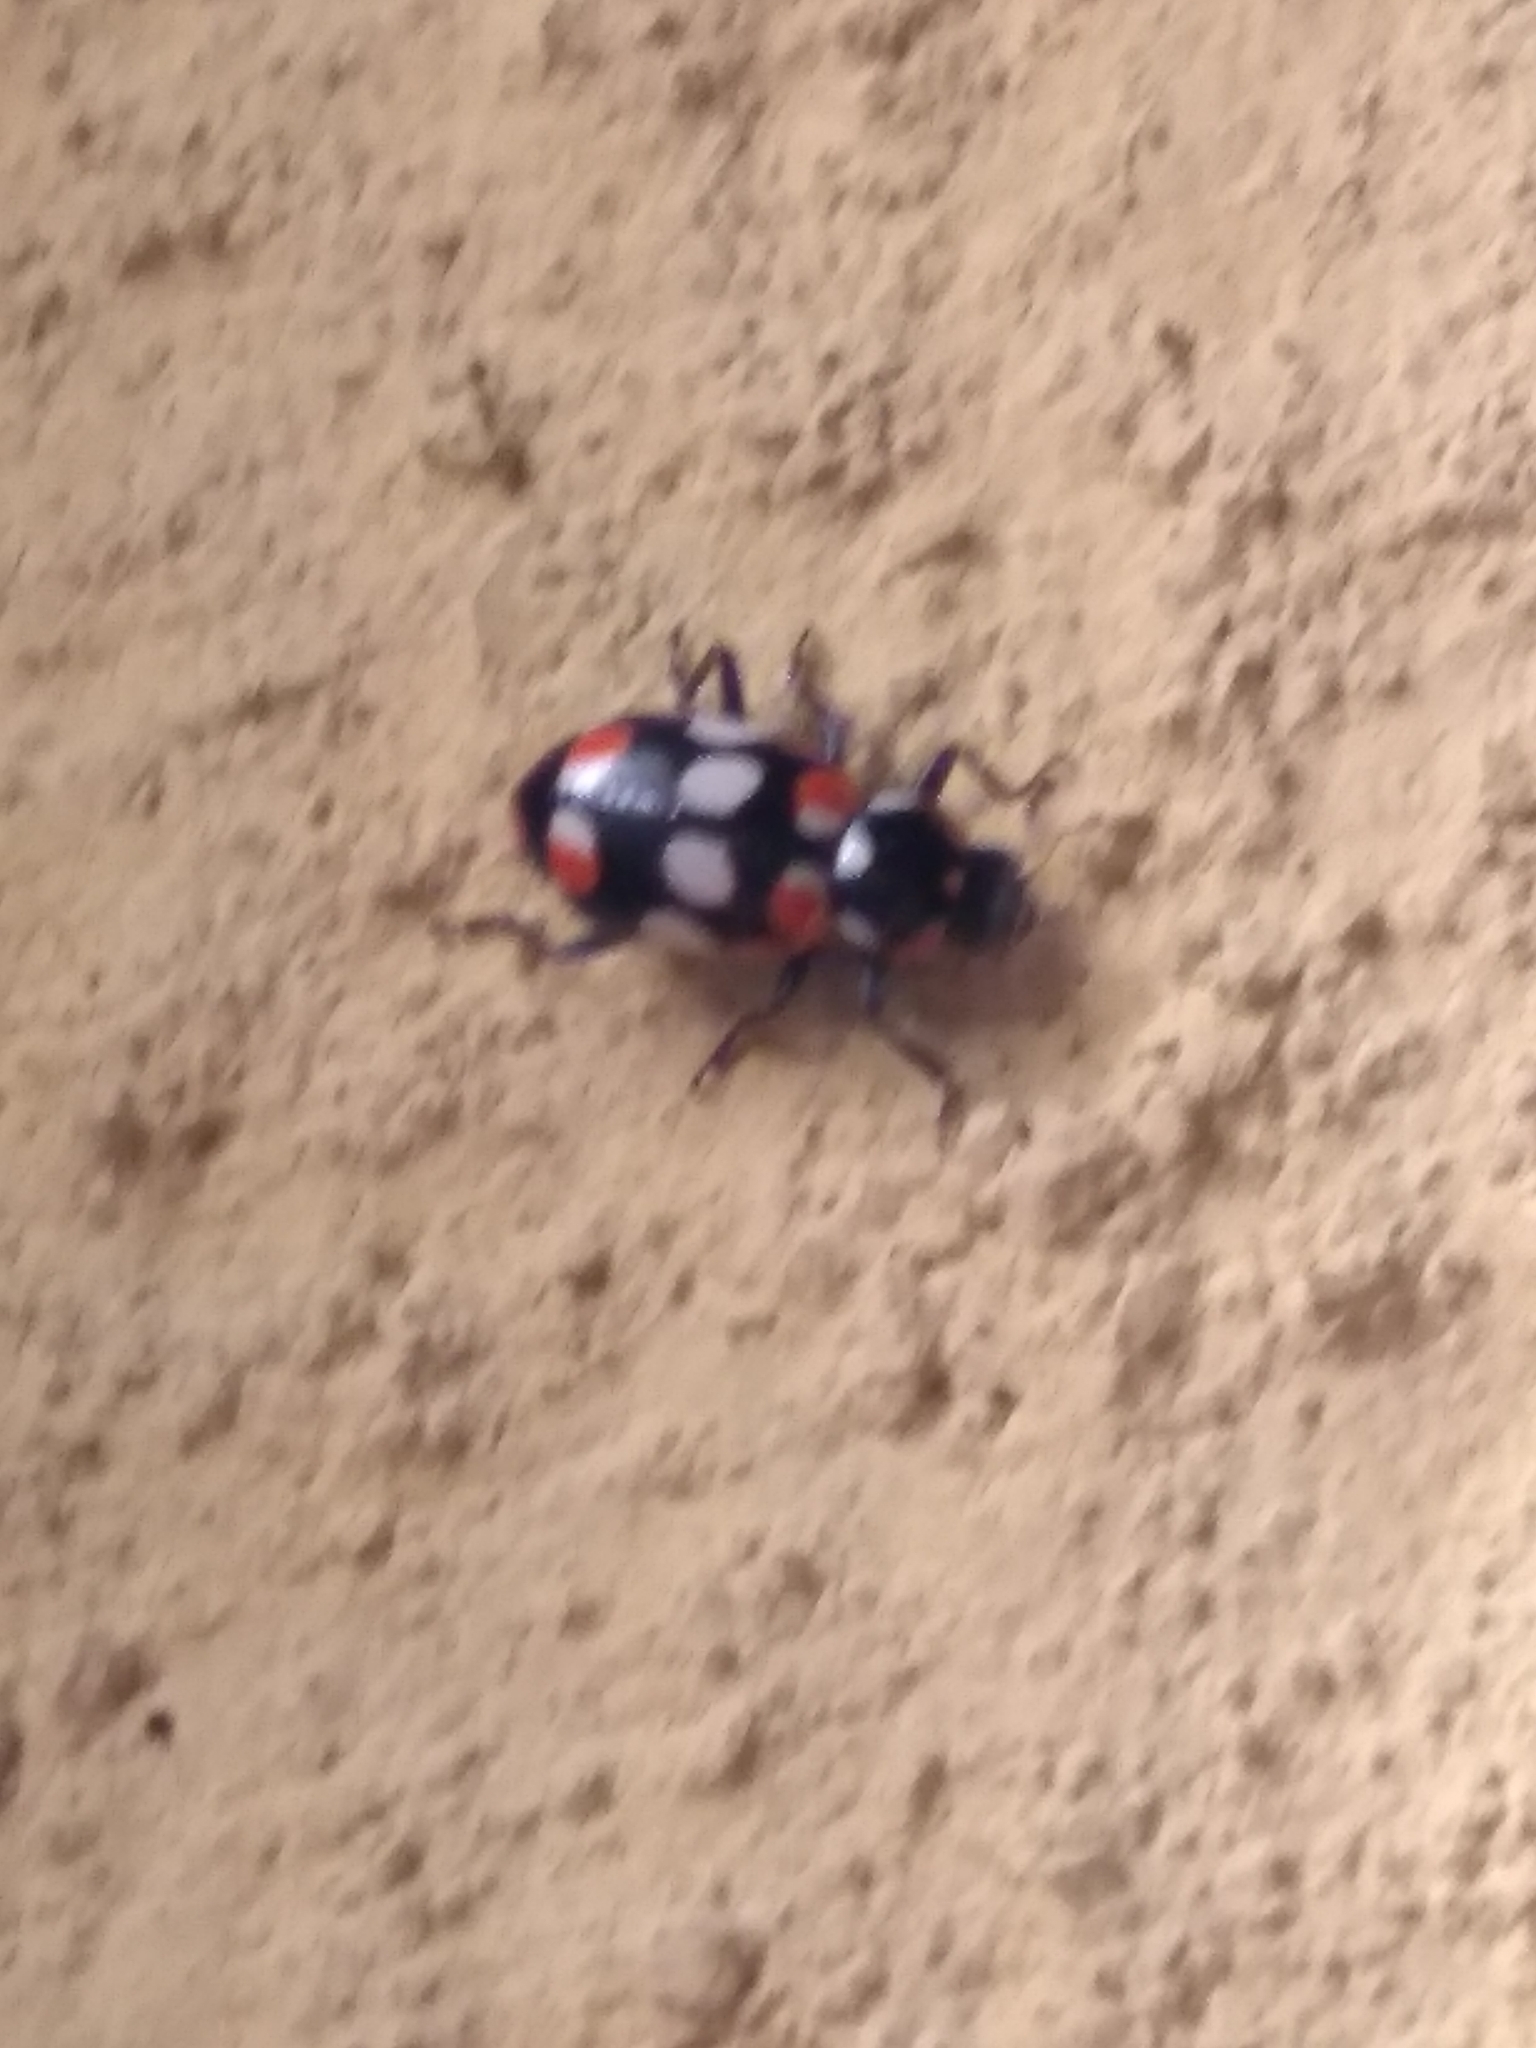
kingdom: Animalia
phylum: Arthropoda
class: Insecta
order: Coleoptera
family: Coccinellidae
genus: Eriopis
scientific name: Eriopis connexa
